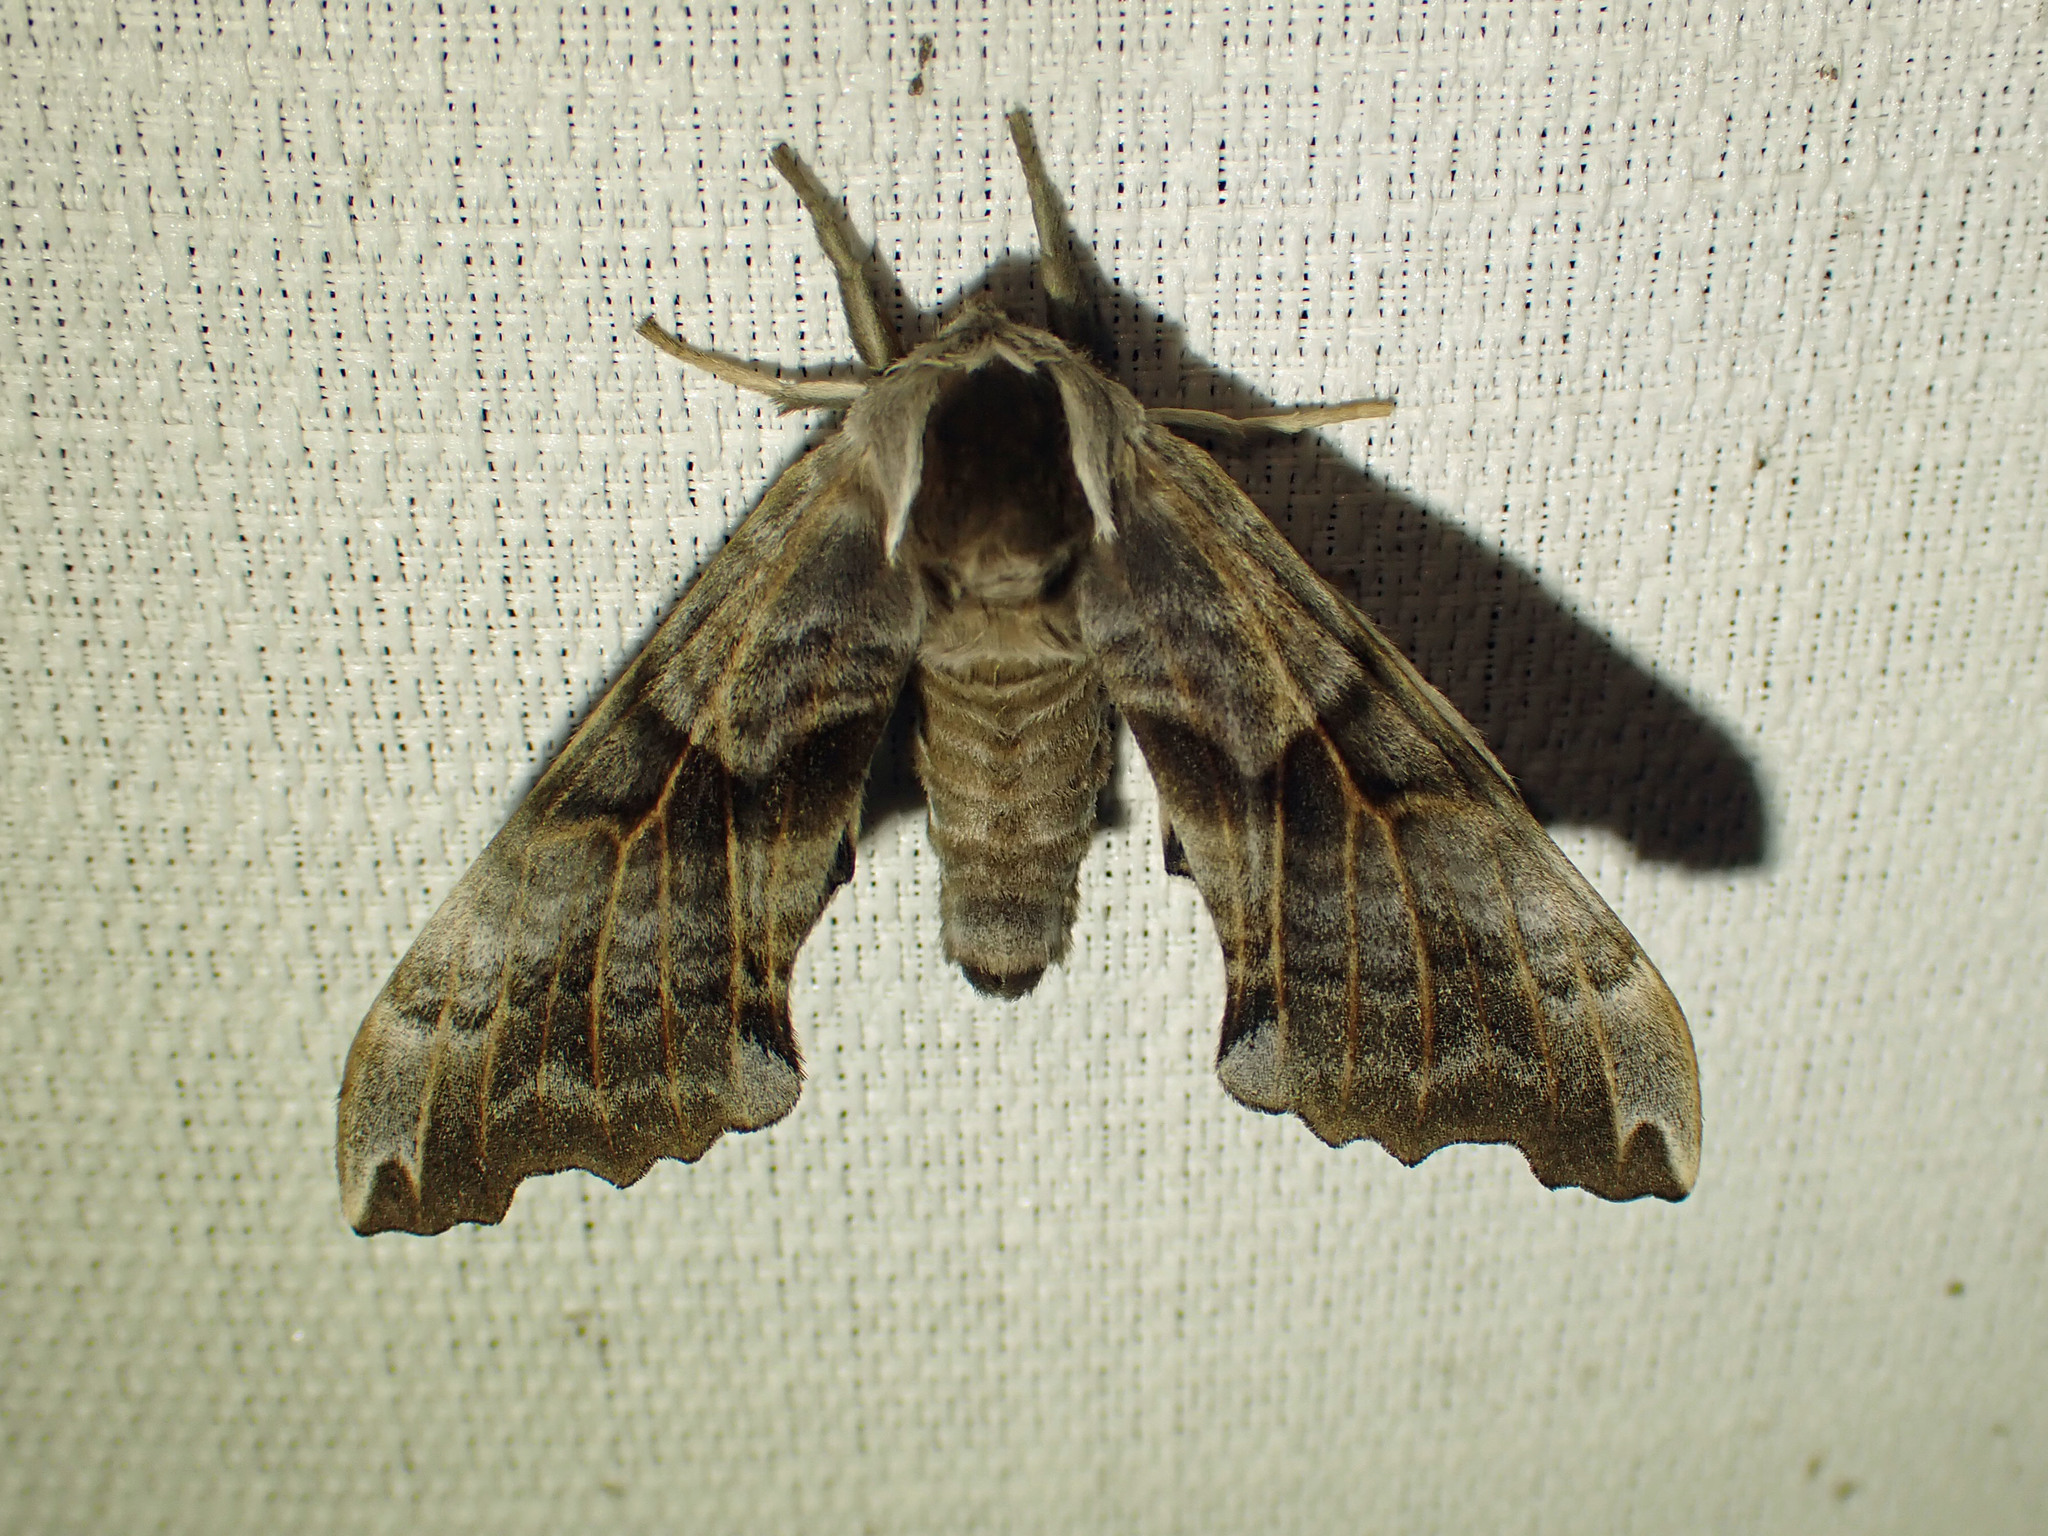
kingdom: Animalia
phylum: Arthropoda
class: Insecta
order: Lepidoptera
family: Sphingidae
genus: Smerinthus
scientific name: Smerinthus cerisyi
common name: Cerisy's sphinx moth
